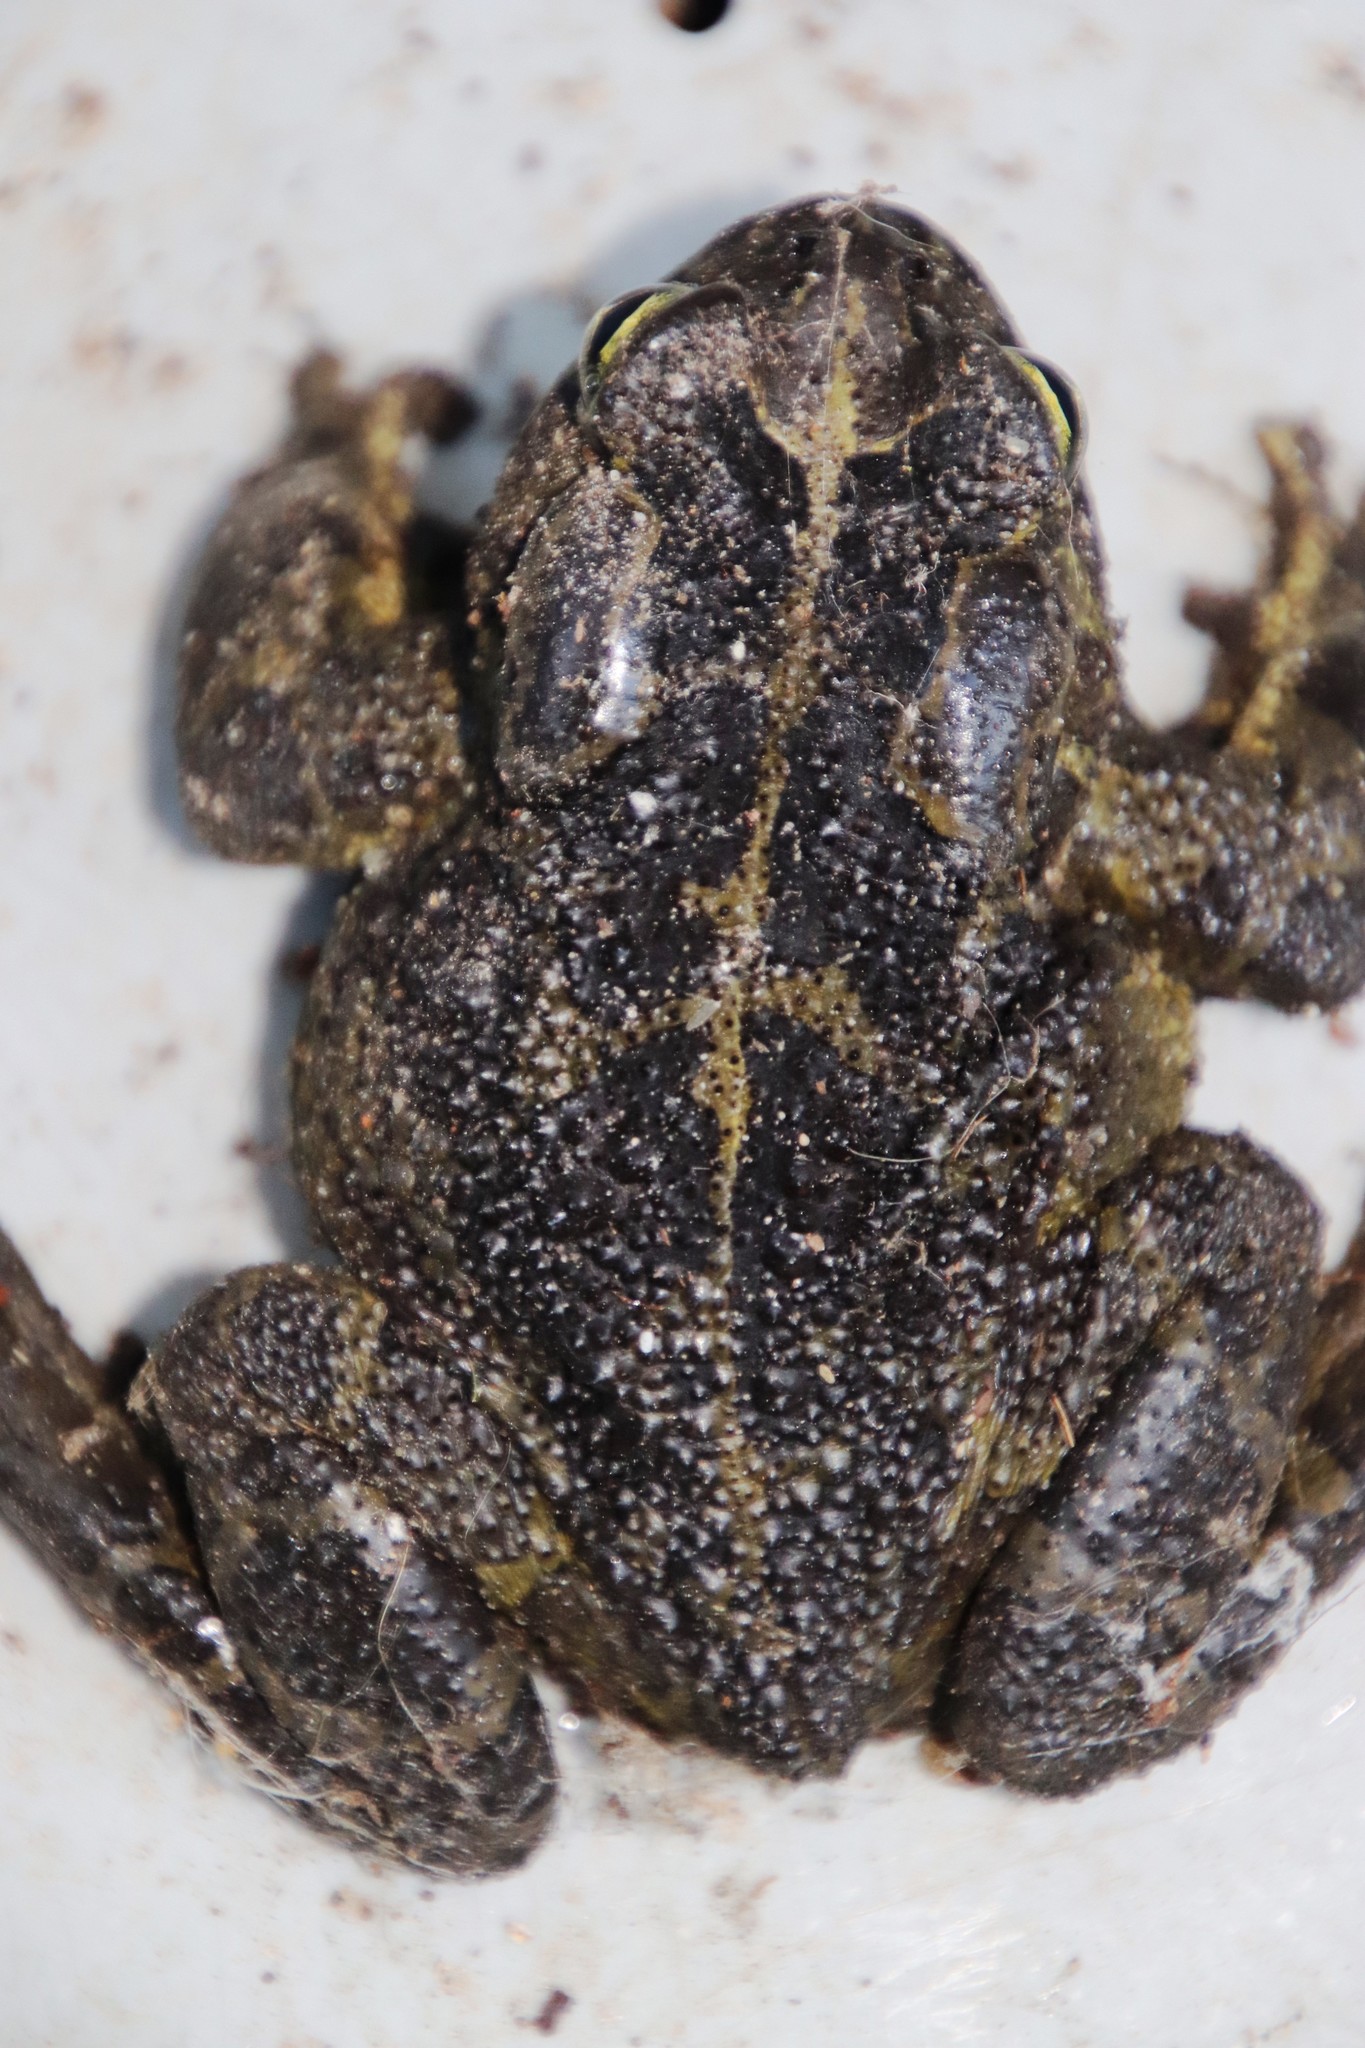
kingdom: Animalia
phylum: Chordata
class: Amphibia
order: Anura
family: Bufonidae
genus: Sclerophrys
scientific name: Sclerophrys pantherina
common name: Panther toad
